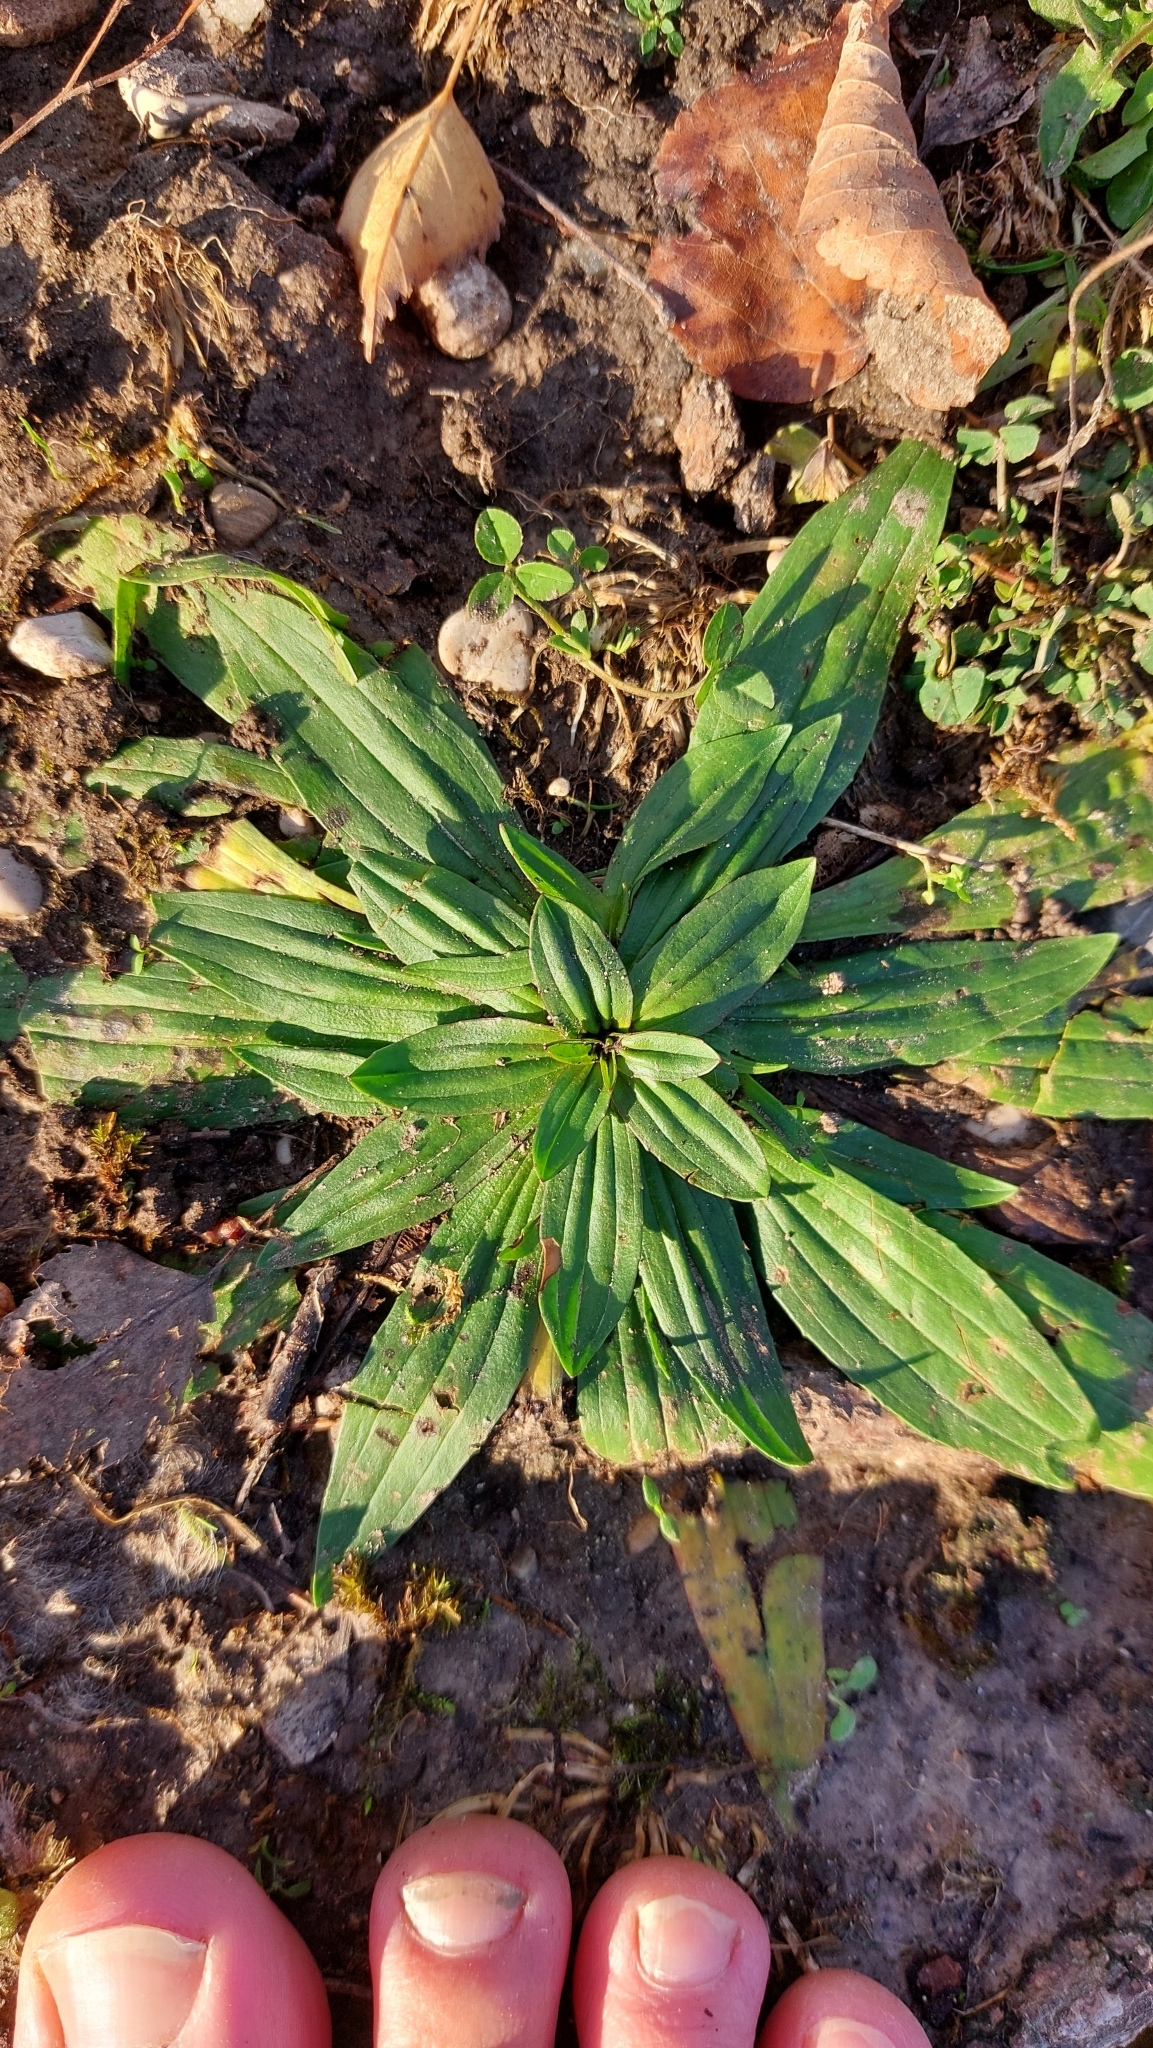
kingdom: Plantae
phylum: Tracheophyta
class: Magnoliopsida
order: Lamiales
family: Plantaginaceae
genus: Plantago
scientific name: Plantago lanceolata
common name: Ribwort plantain
